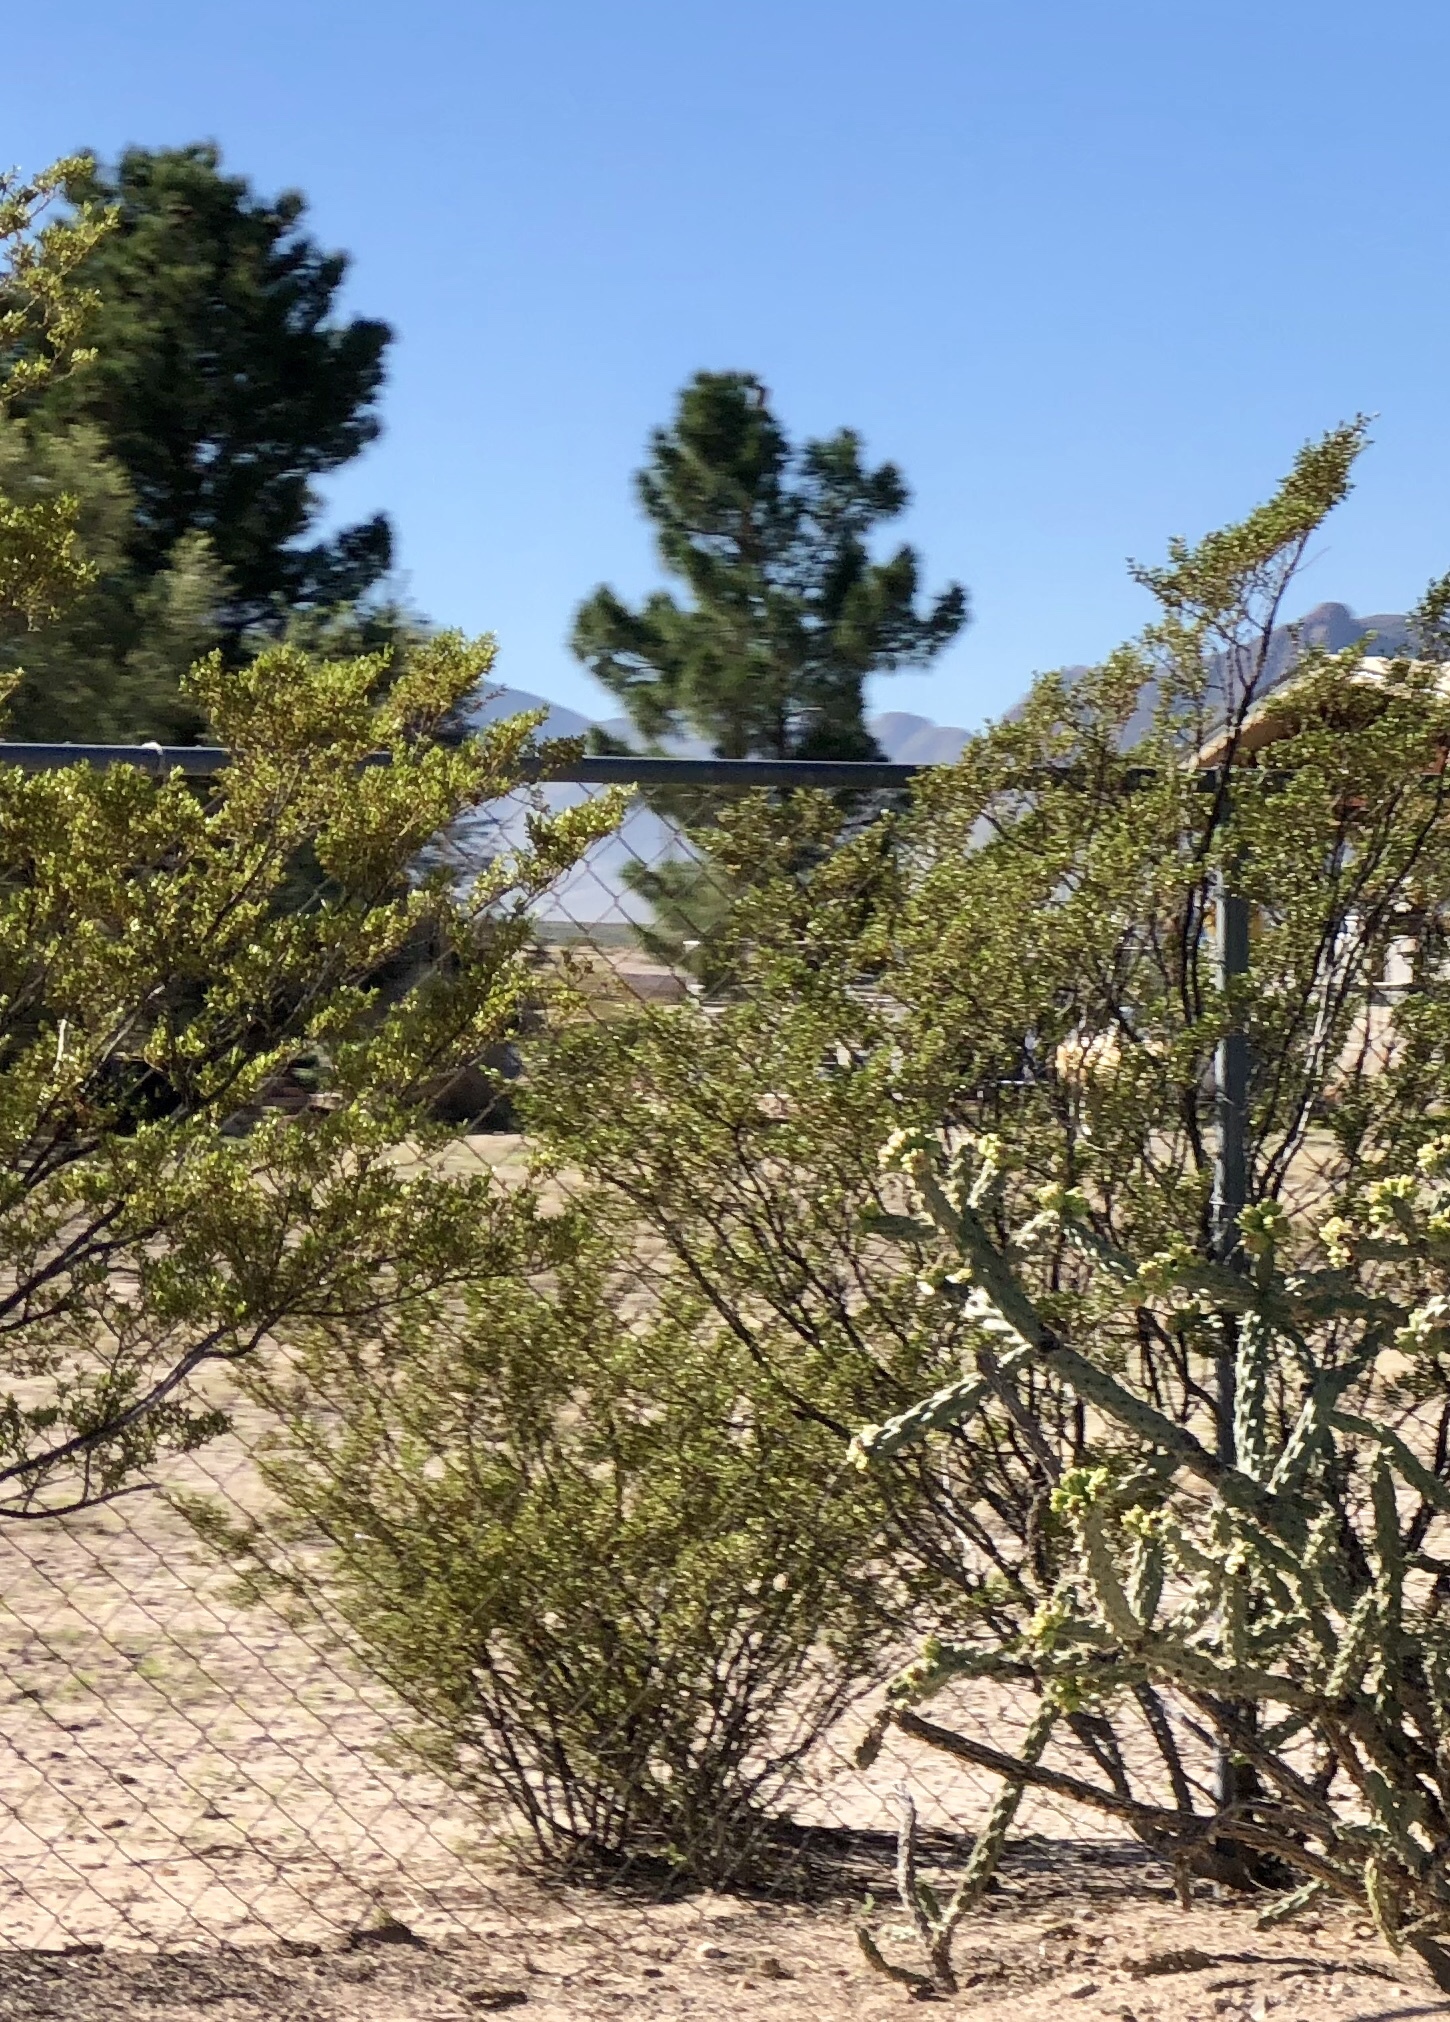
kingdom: Plantae
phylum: Tracheophyta
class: Magnoliopsida
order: Zygophyllales
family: Zygophyllaceae
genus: Larrea
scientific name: Larrea tridentata
